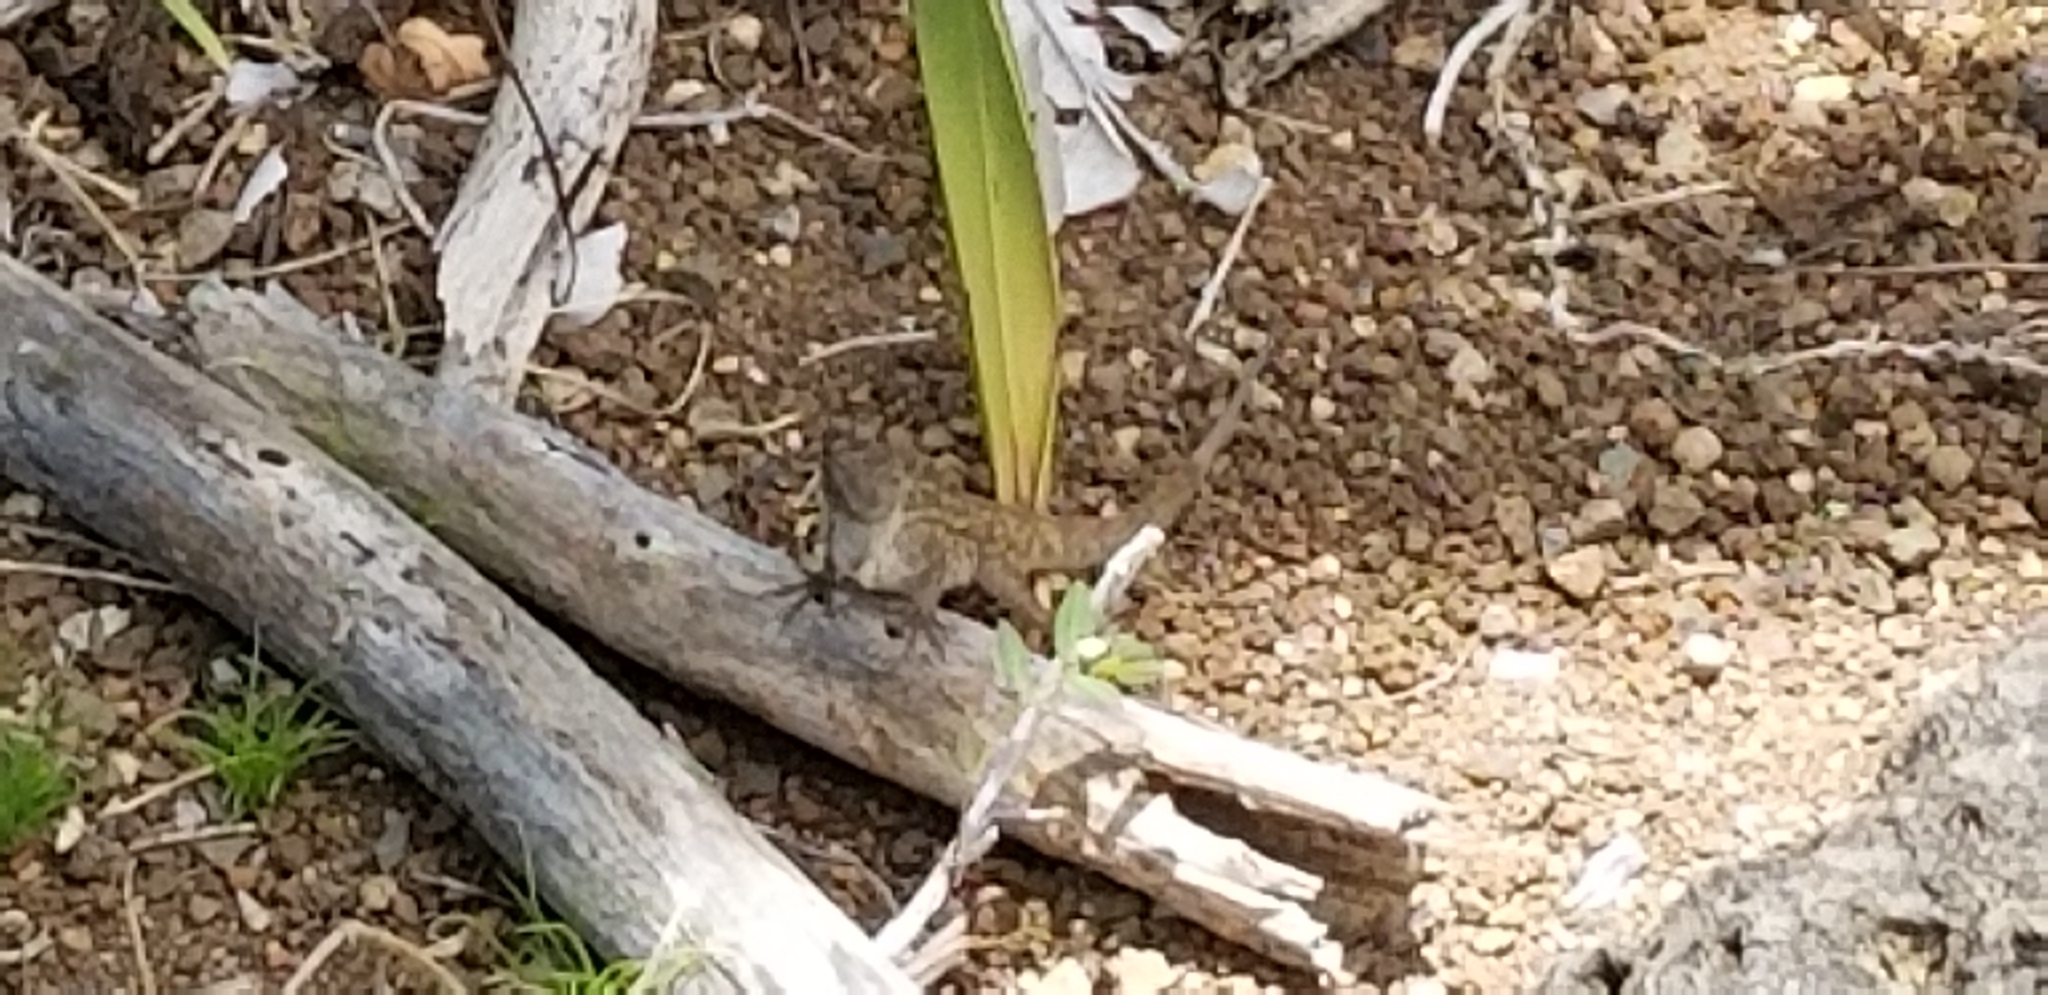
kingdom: Animalia
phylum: Chordata
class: Squamata
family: Dactyloidae
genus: Anolis
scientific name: Anolis sagrei
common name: Brown anole
